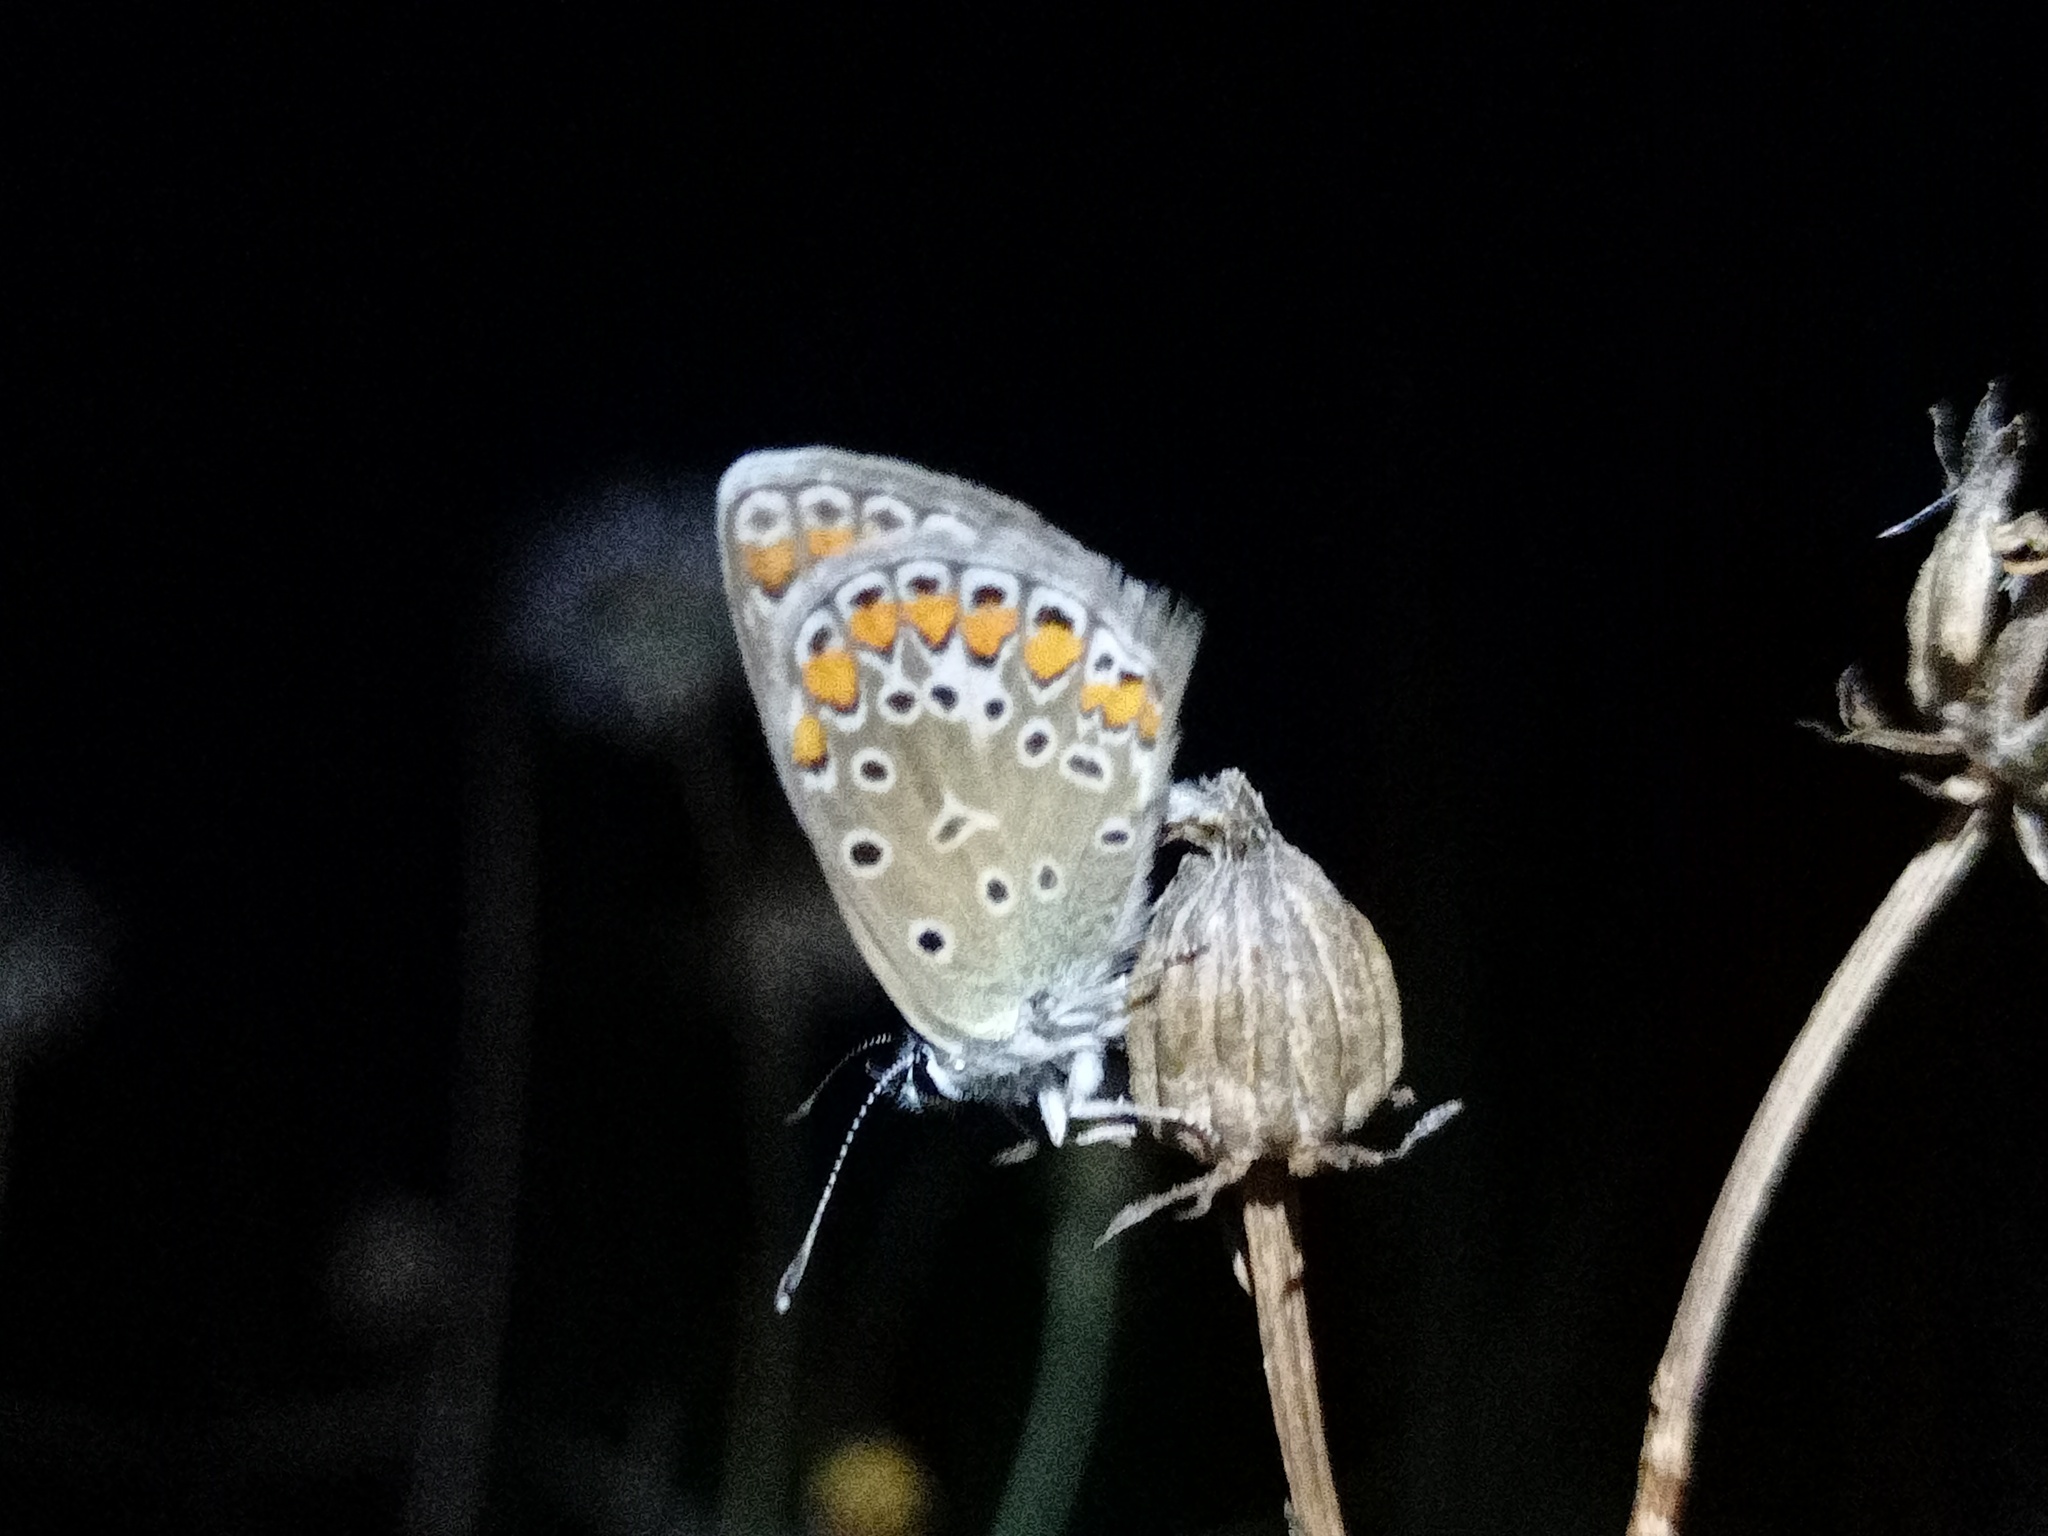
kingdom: Animalia
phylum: Arthropoda
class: Insecta
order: Lepidoptera
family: Lycaenidae
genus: Polyommatus
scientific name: Polyommatus icarus
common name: Common blue
